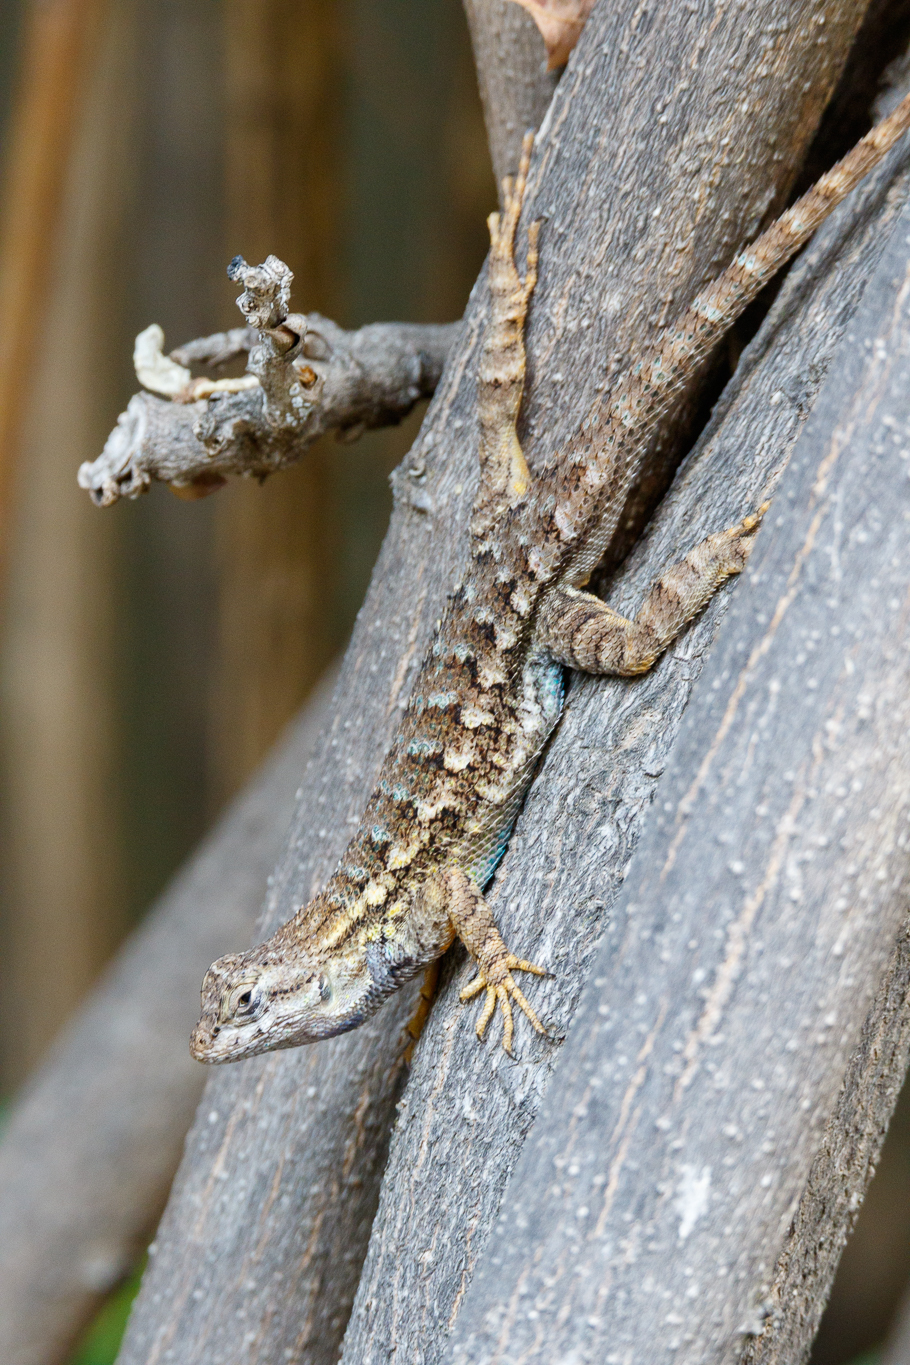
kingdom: Animalia
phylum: Chordata
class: Squamata
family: Phrynosomatidae
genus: Sceloporus
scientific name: Sceloporus occidentalis
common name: Western fence lizard
